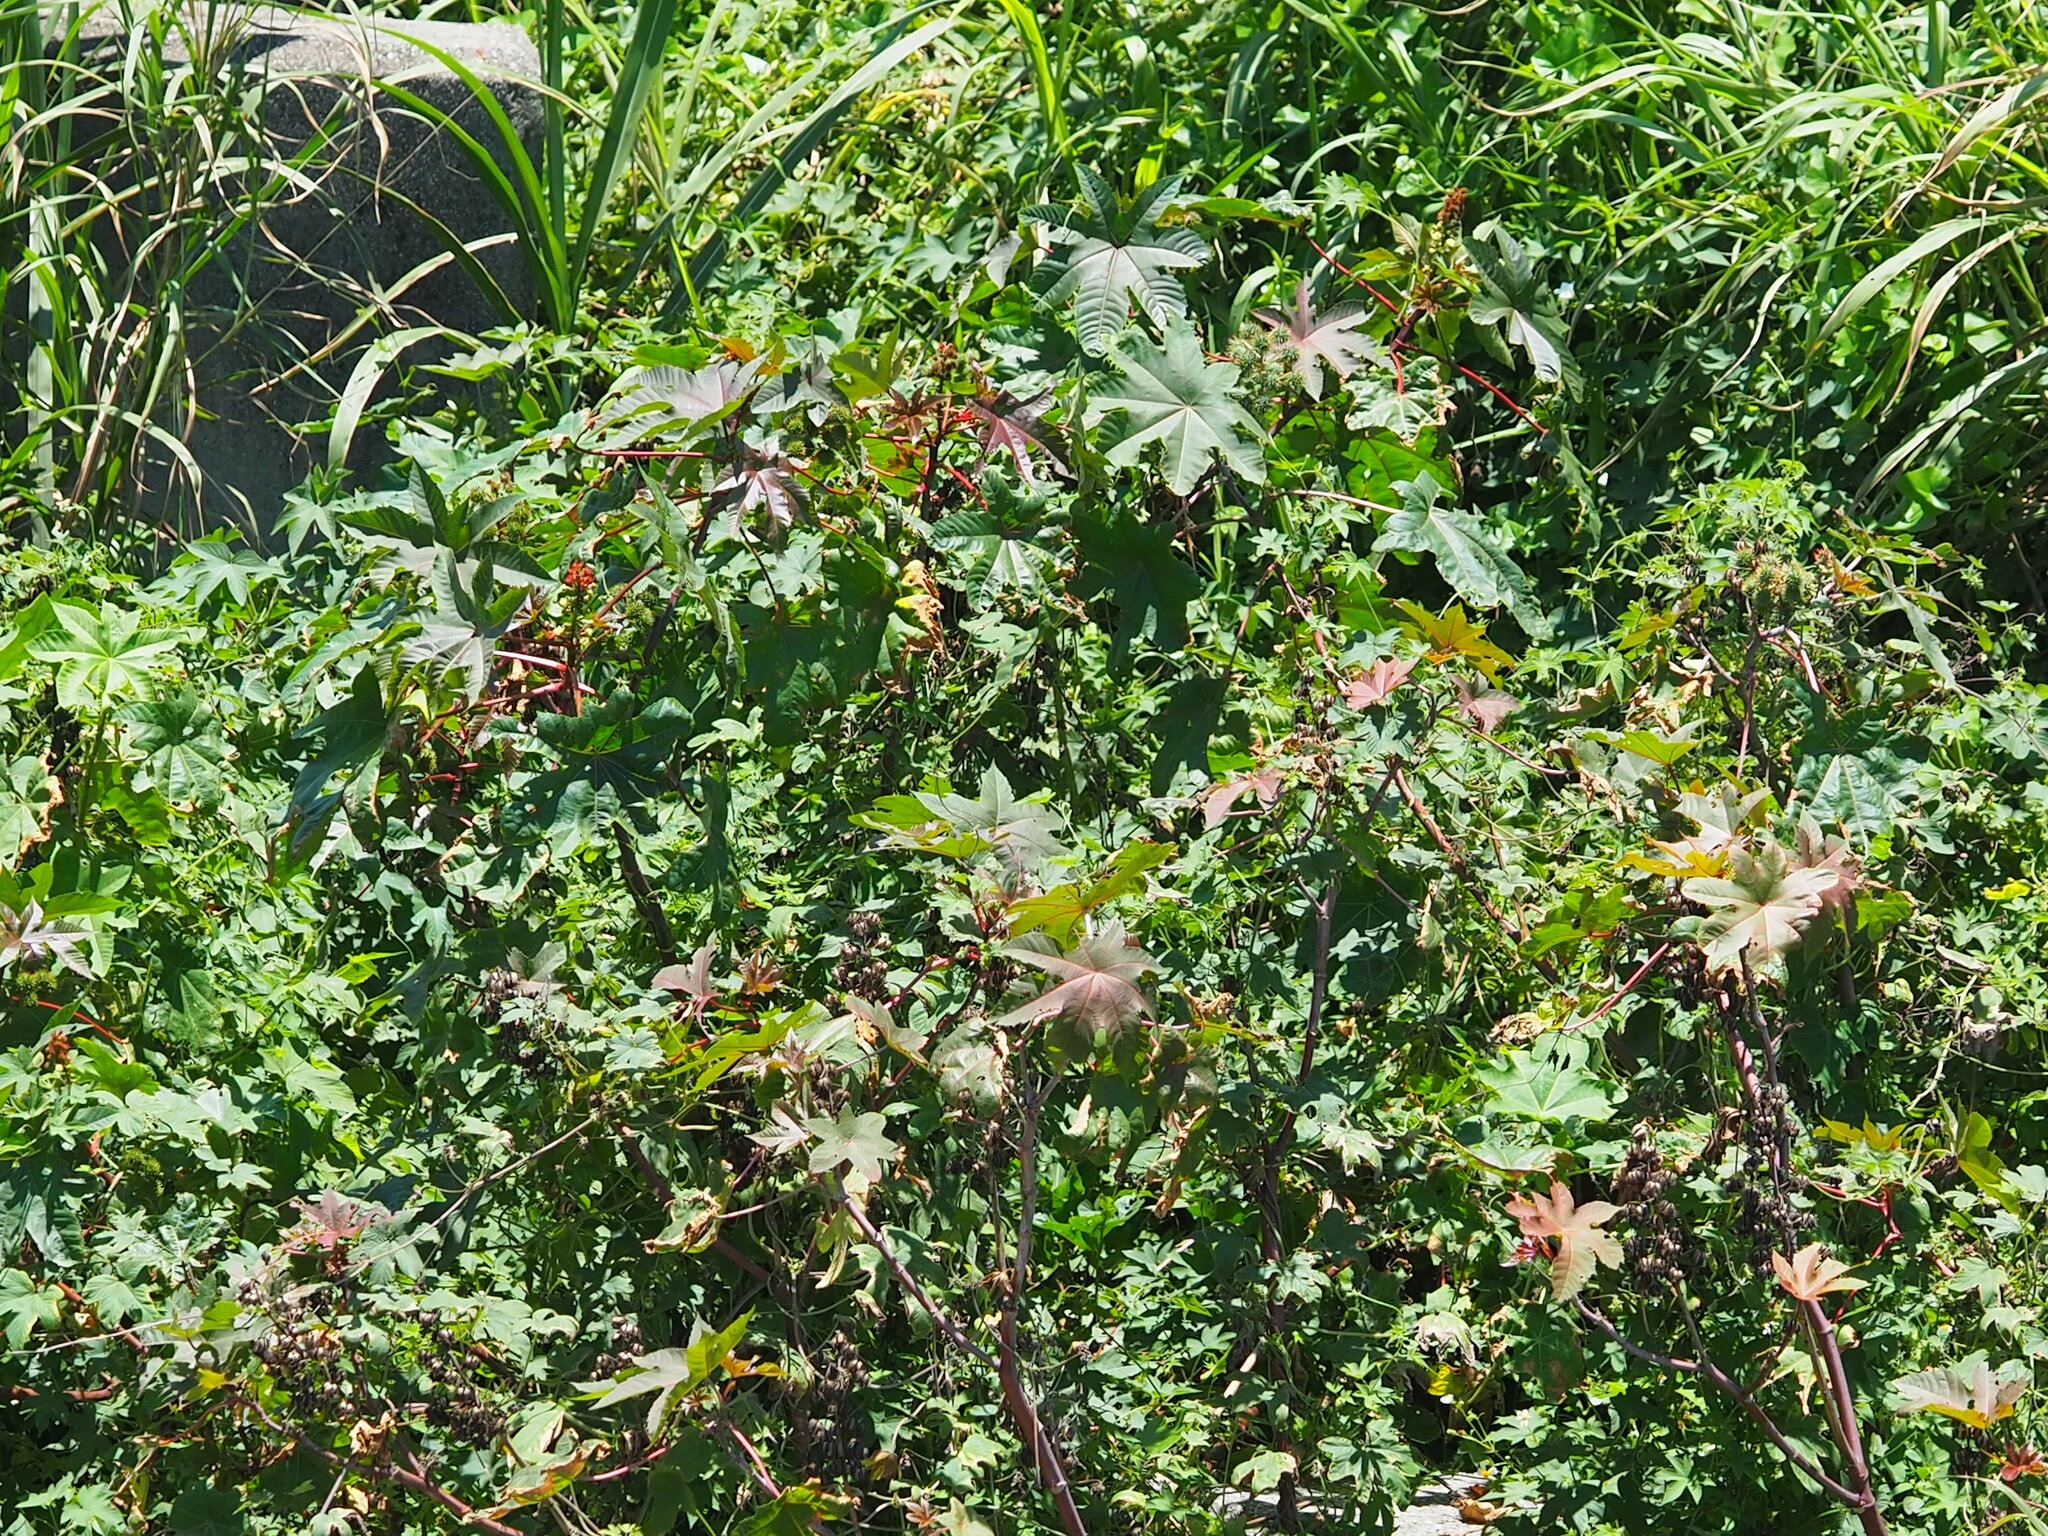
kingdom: Plantae
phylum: Tracheophyta
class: Magnoliopsida
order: Malpighiales
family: Euphorbiaceae
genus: Ricinus
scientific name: Ricinus communis
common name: Castor-oil-plant
